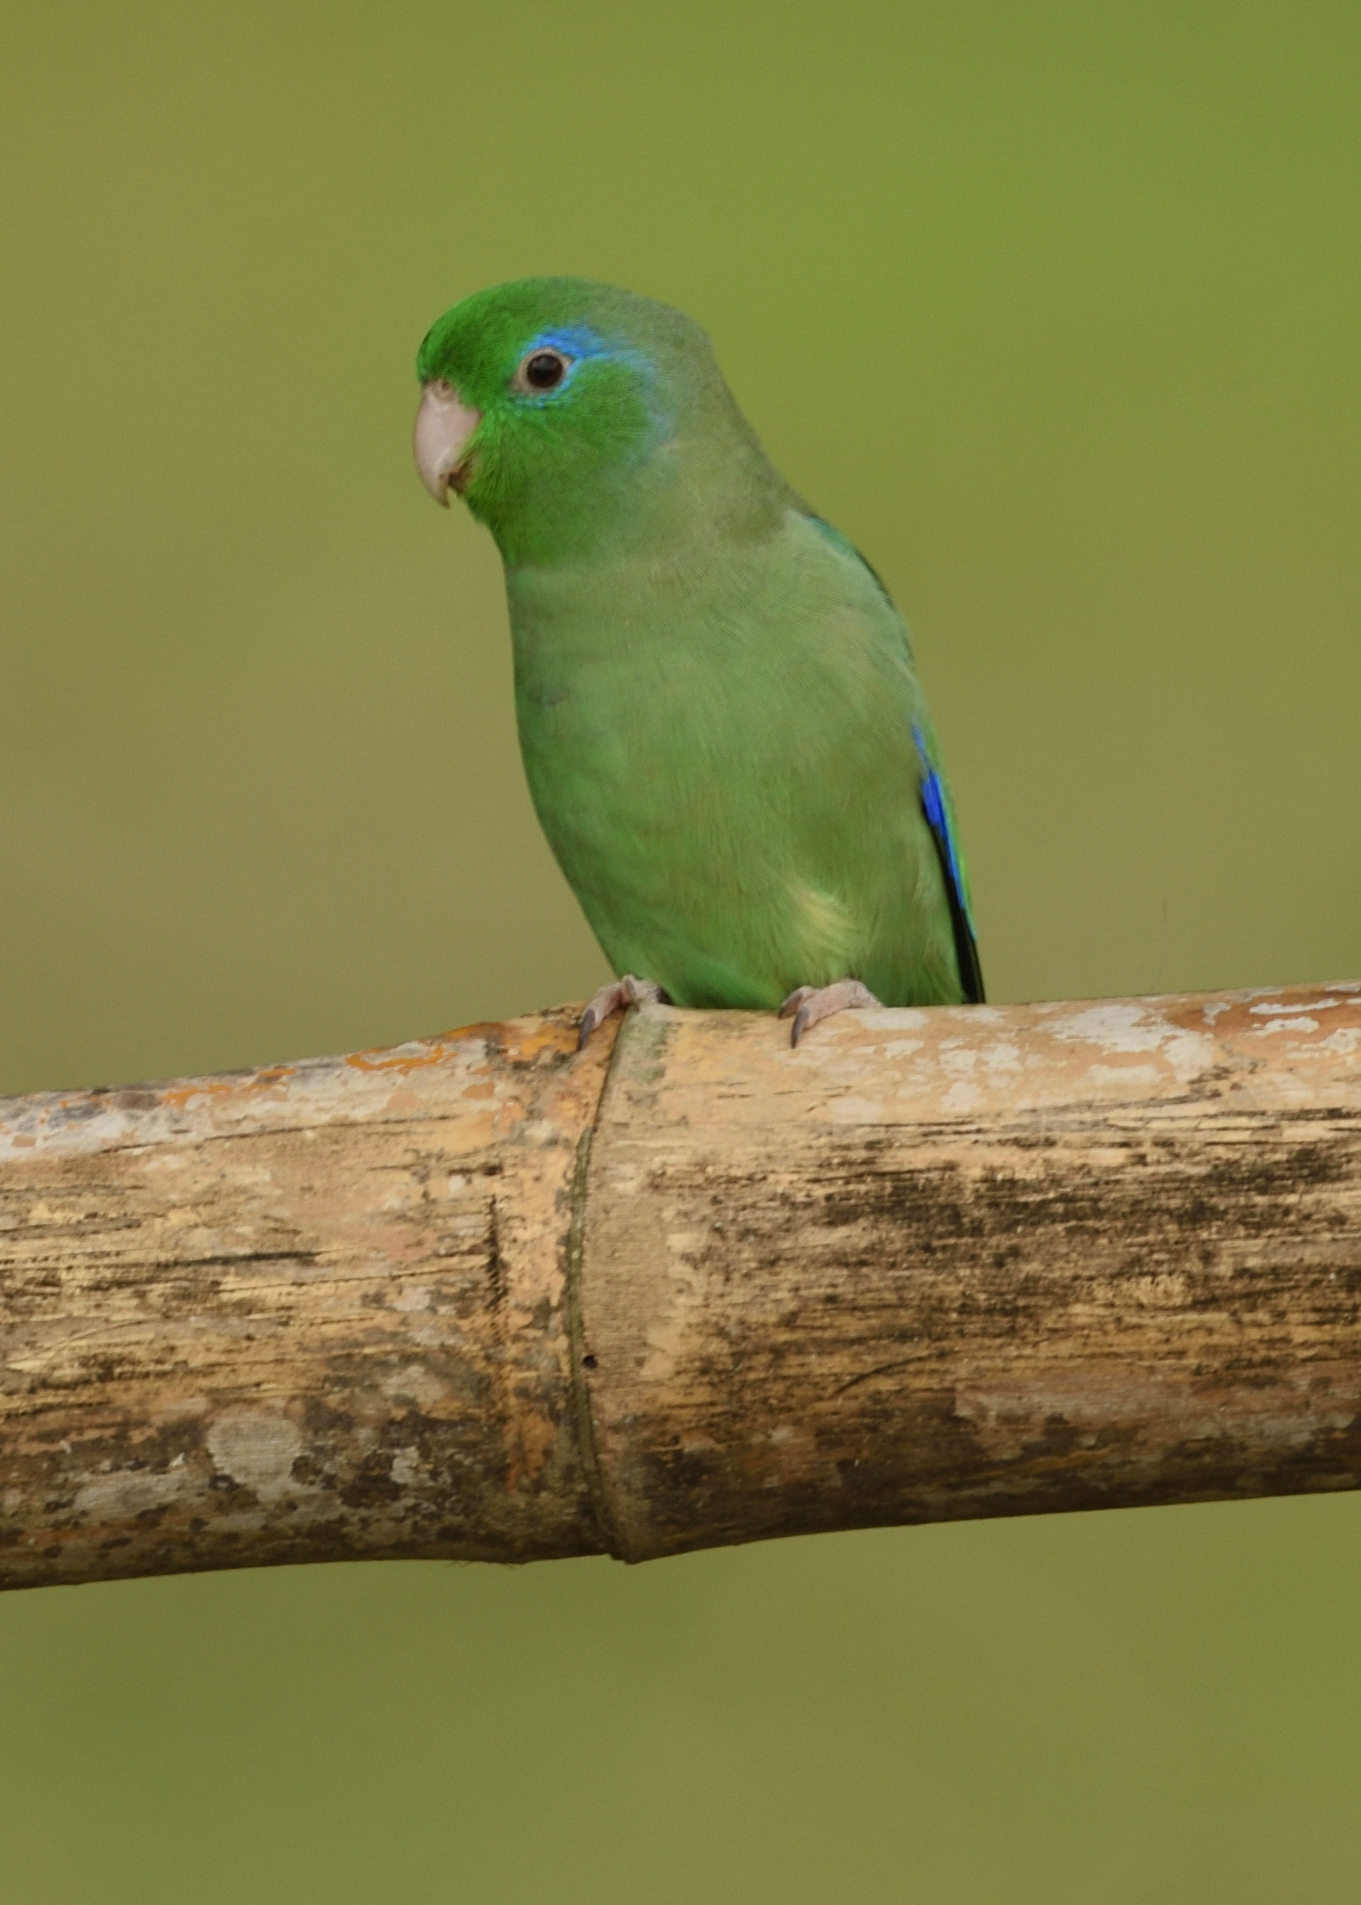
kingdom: Animalia
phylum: Chordata
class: Aves
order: Psittaciformes
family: Psittacidae
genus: Forpus
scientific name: Forpus conspicillatus
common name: Spectacled parrotlet
